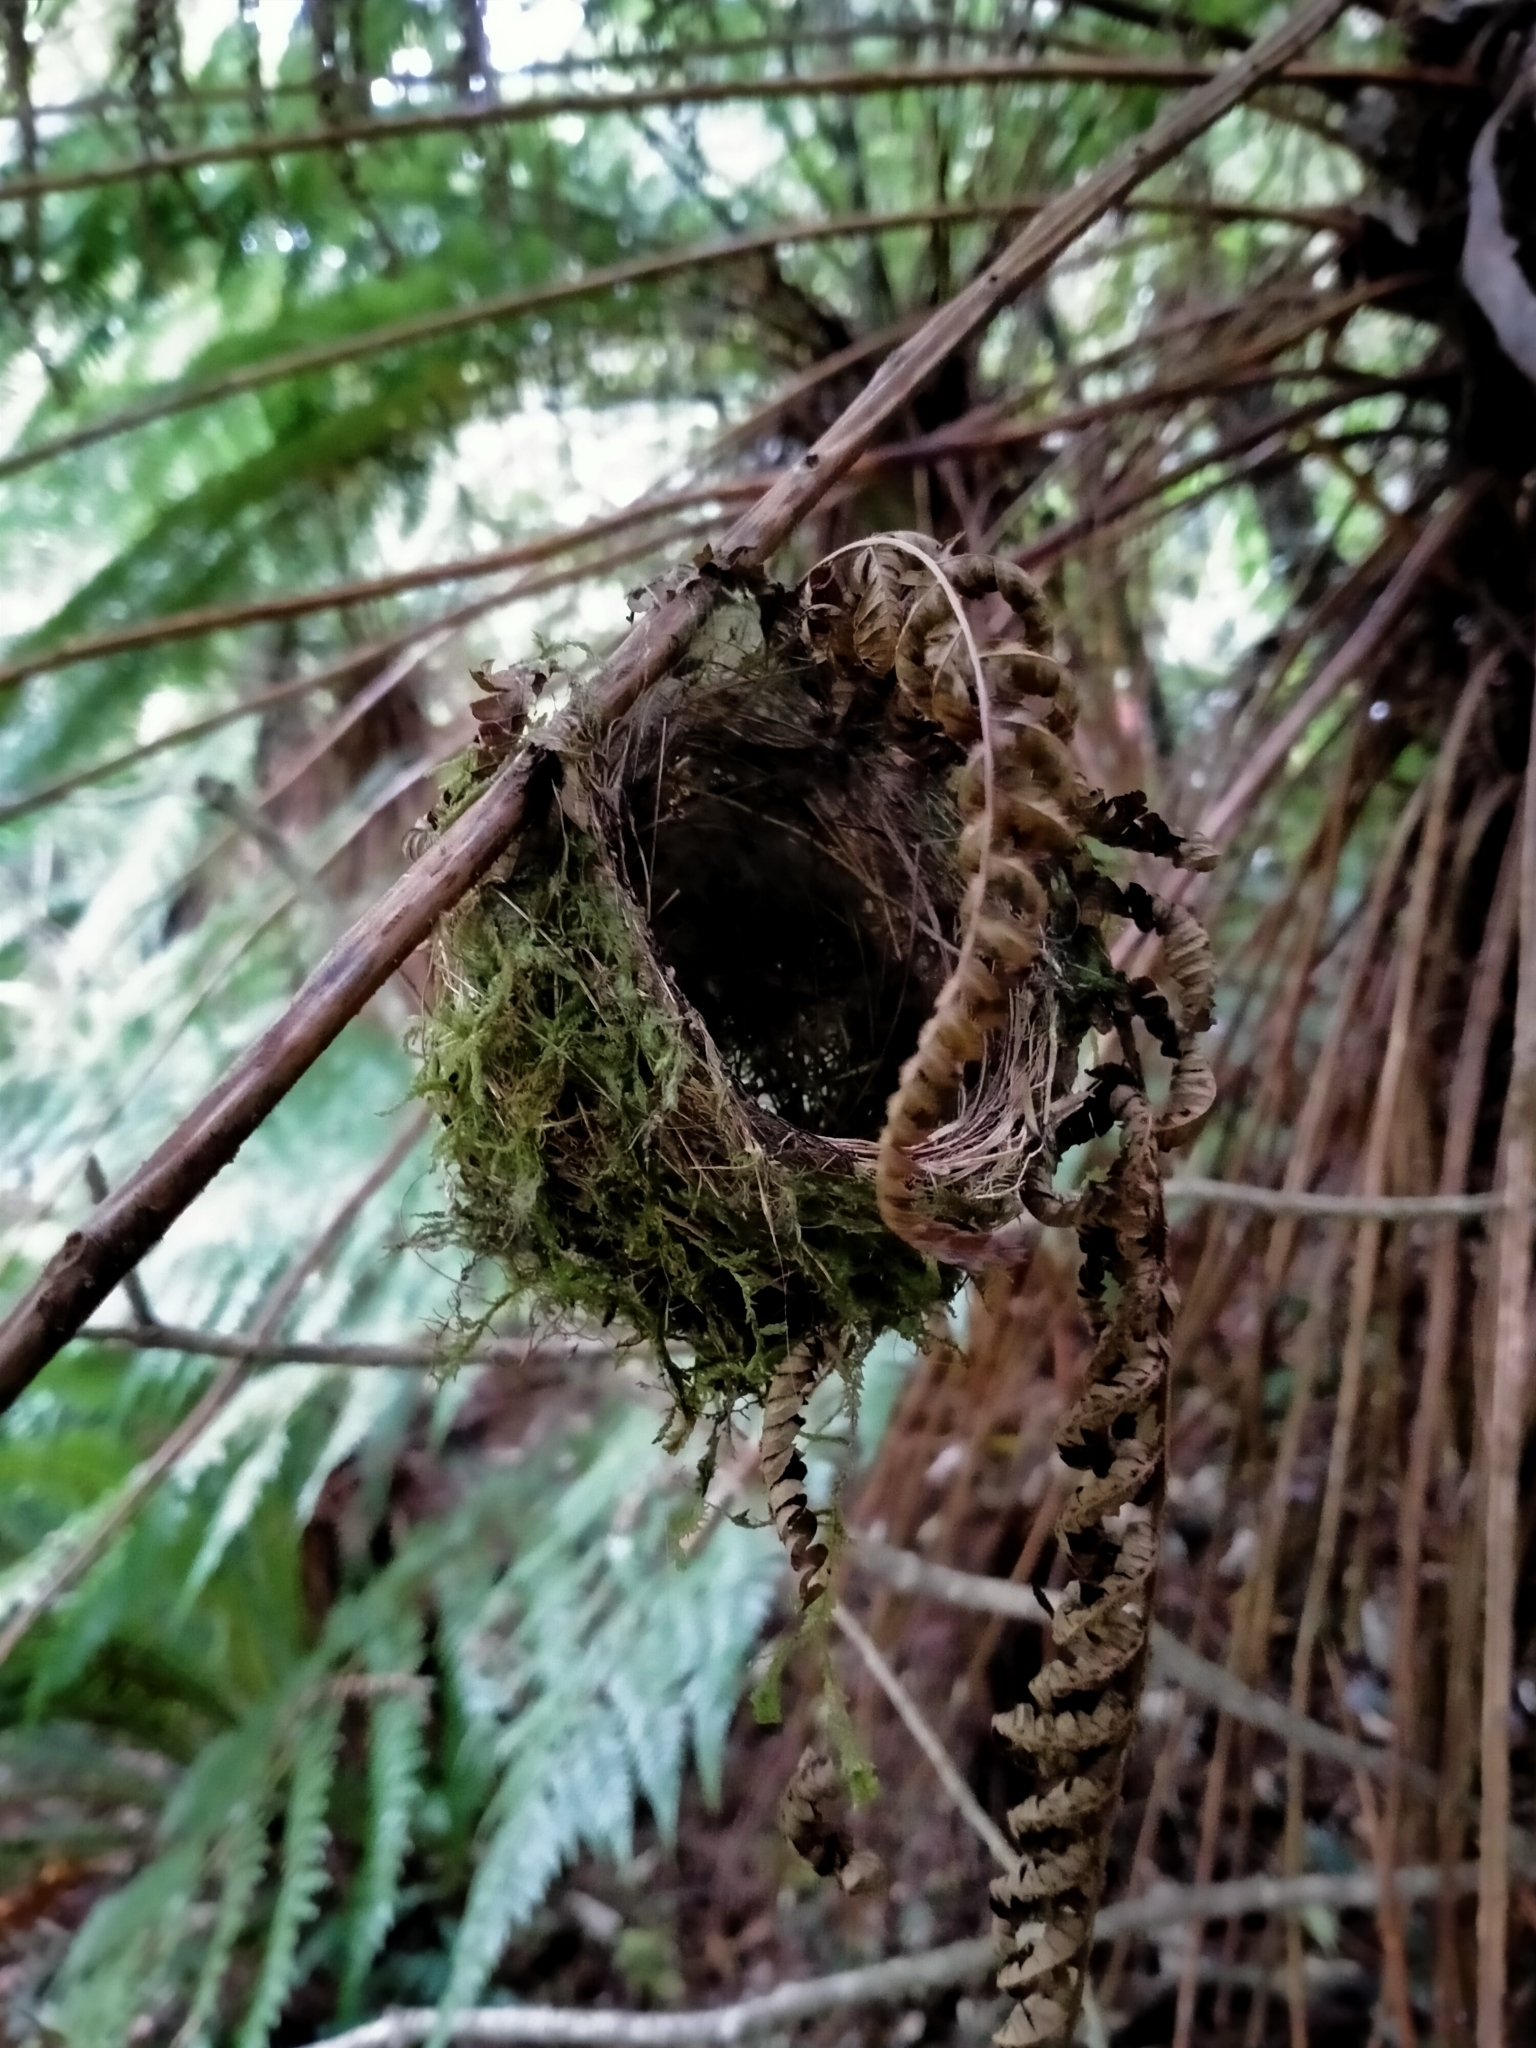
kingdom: Animalia
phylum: Chordata
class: Aves
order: Passeriformes
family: Zosteropidae
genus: Zosterops
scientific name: Zosterops lateralis
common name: Silvereye
